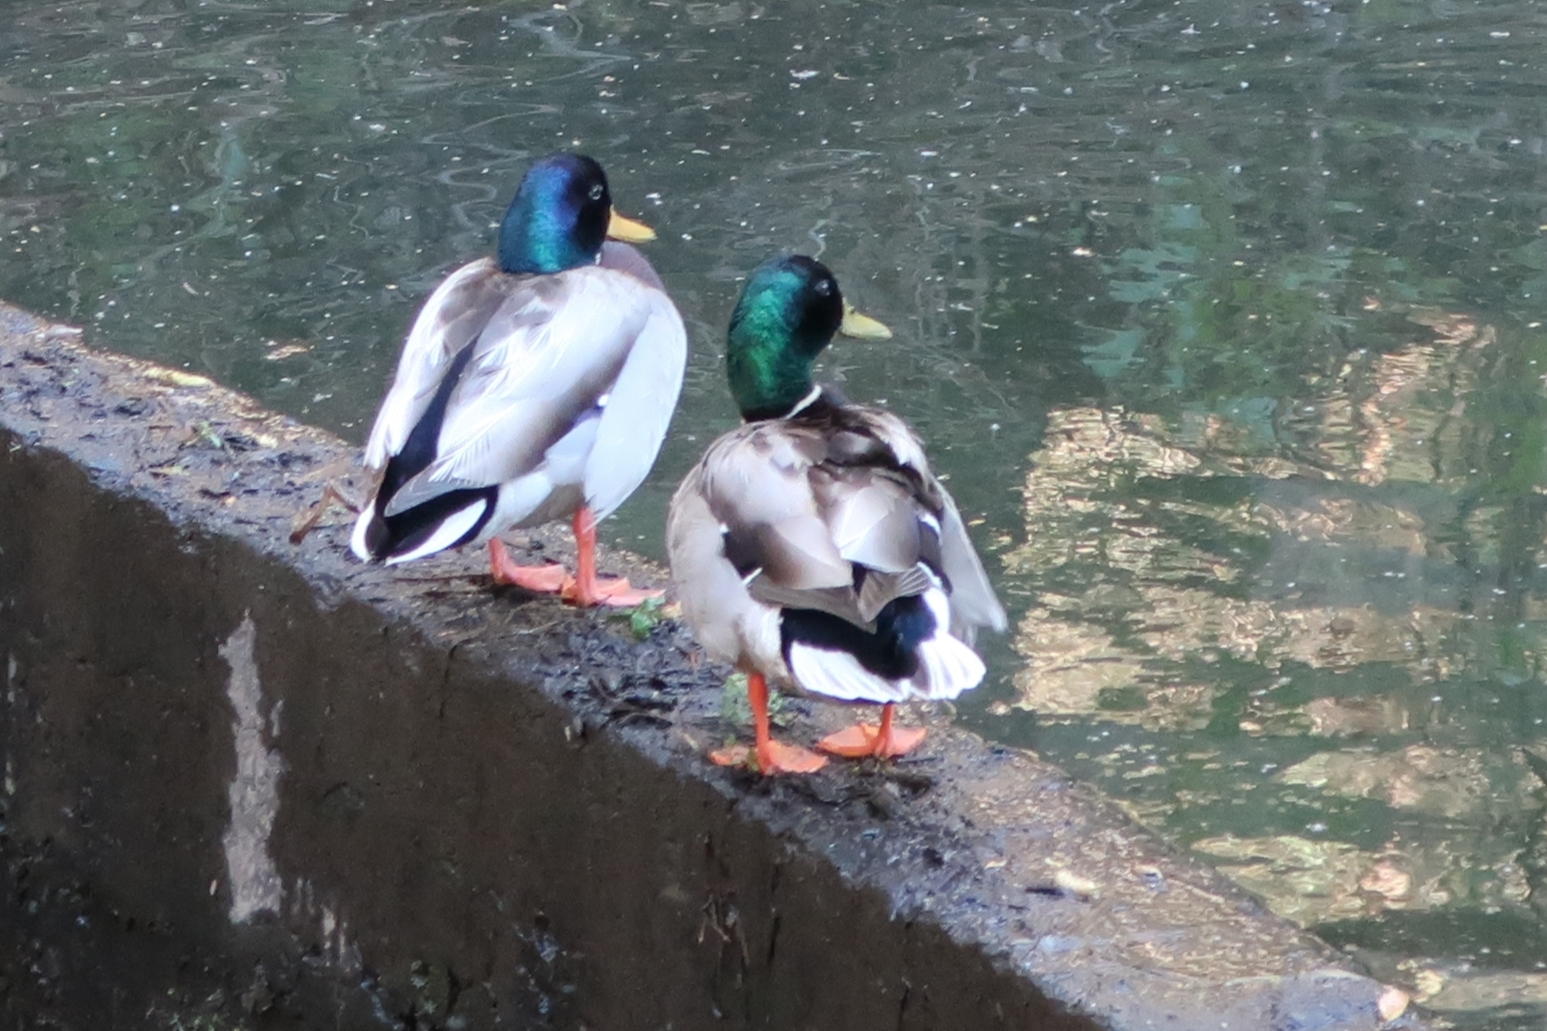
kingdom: Animalia
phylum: Chordata
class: Aves
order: Anseriformes
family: Anatidae
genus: Anas
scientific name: Anas platyrhynchos
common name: Mallard
